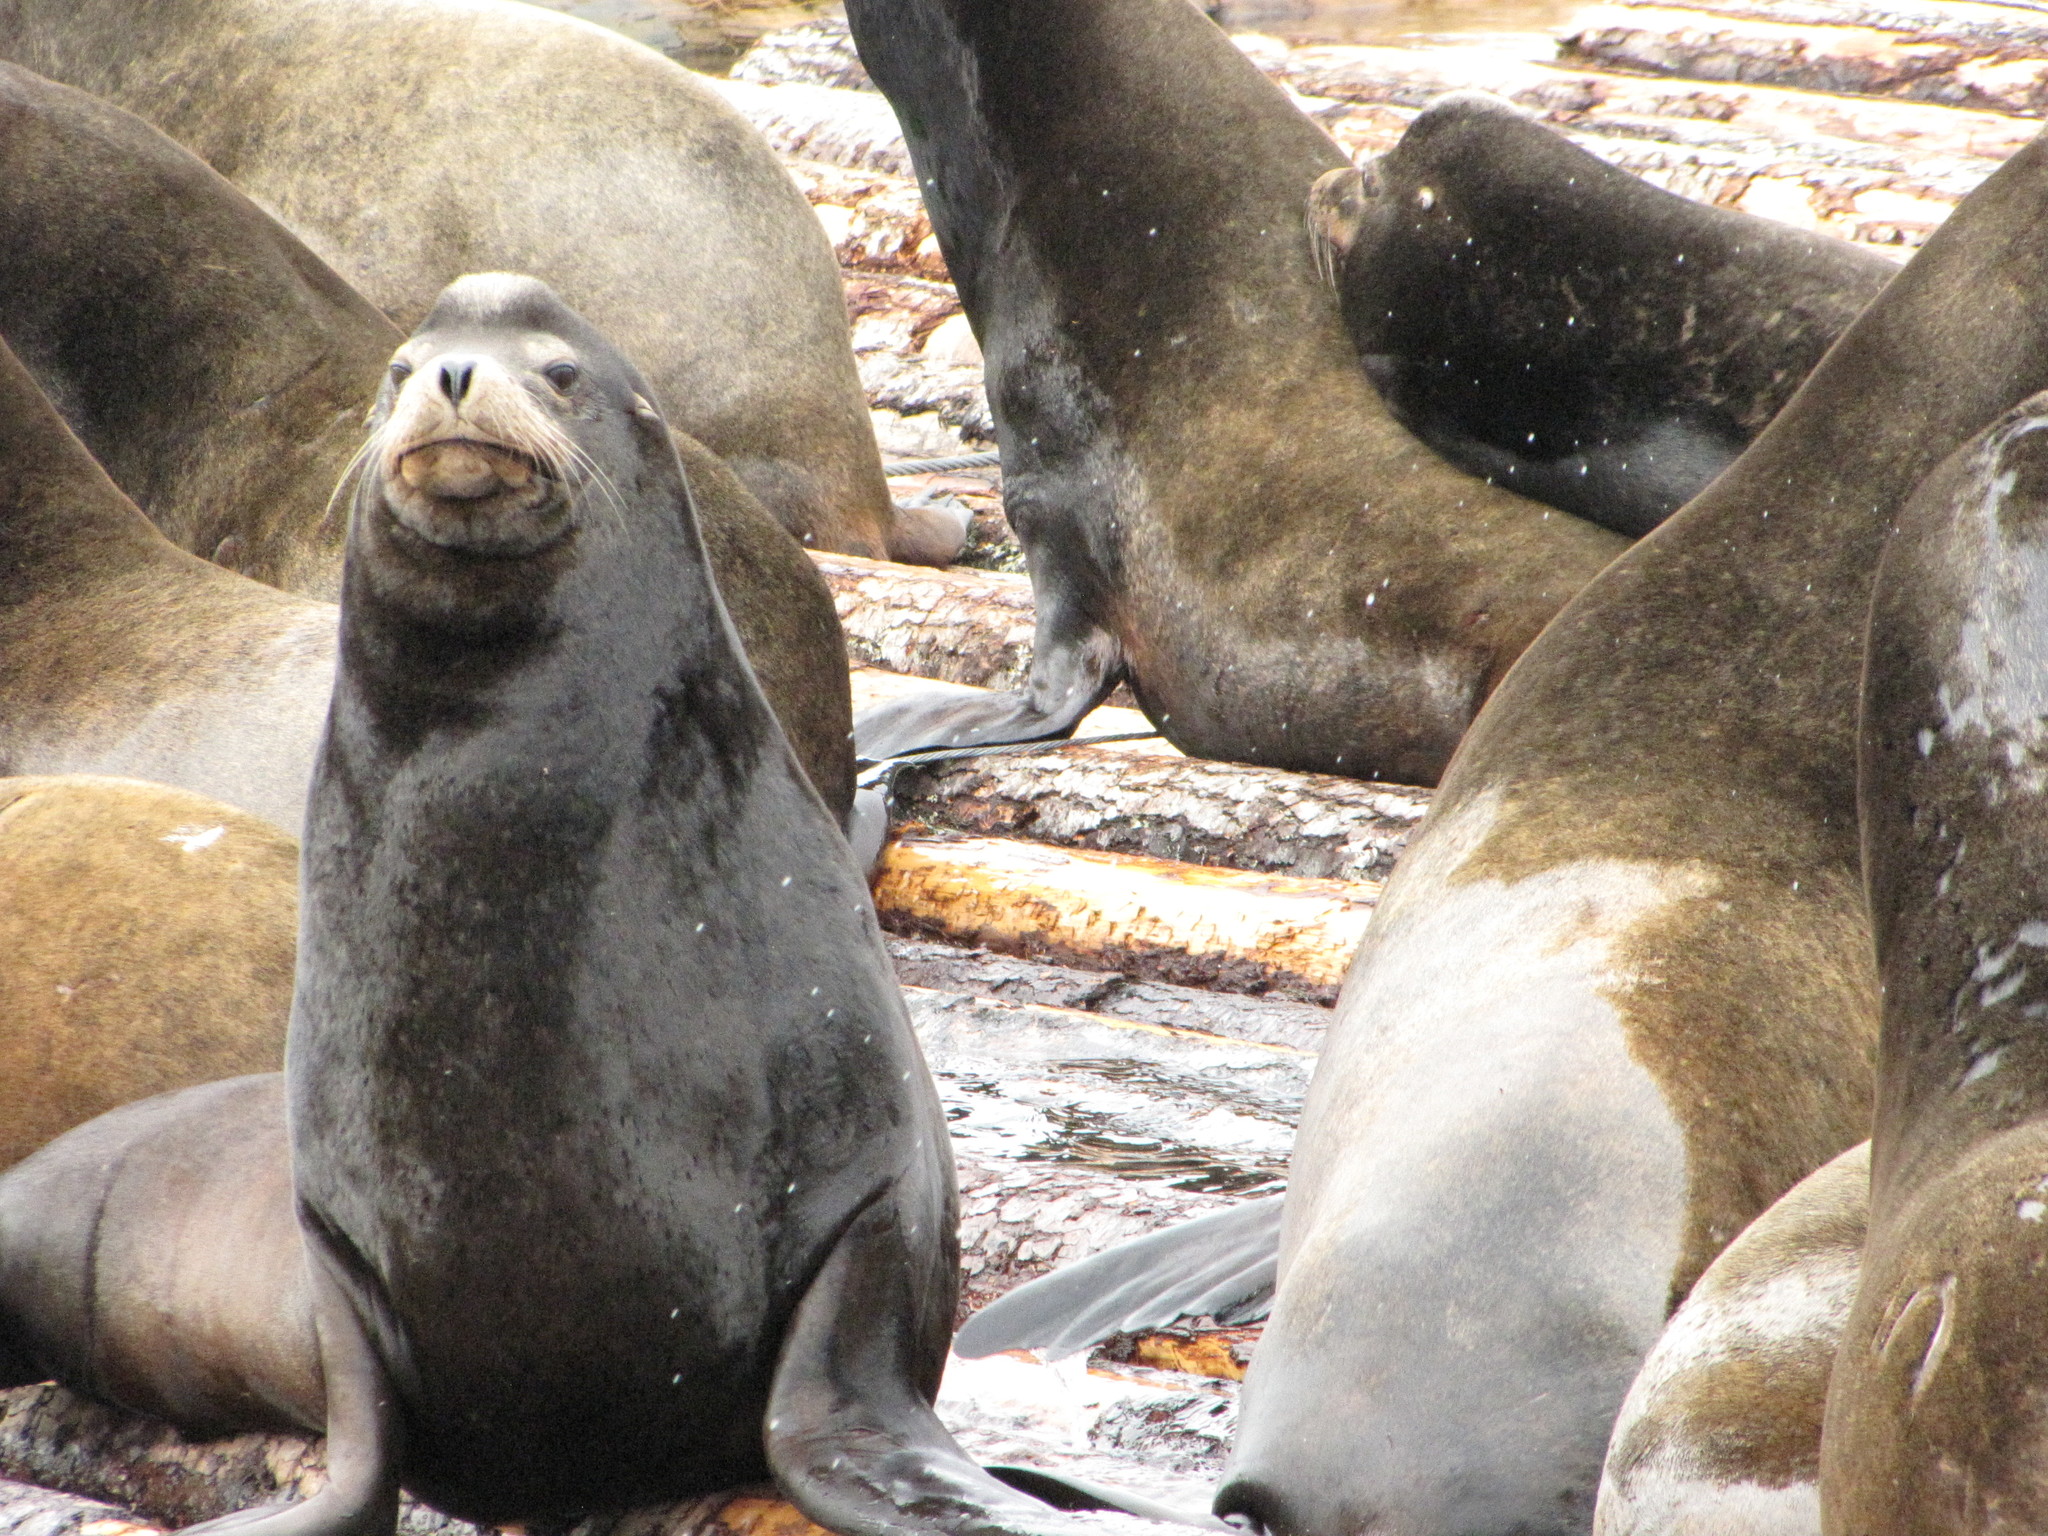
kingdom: Animalia
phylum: Chordata
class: Mammalia
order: Carnivora
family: Otariidae
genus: Zalophus
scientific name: Zalophus californianus
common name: California sea lion
